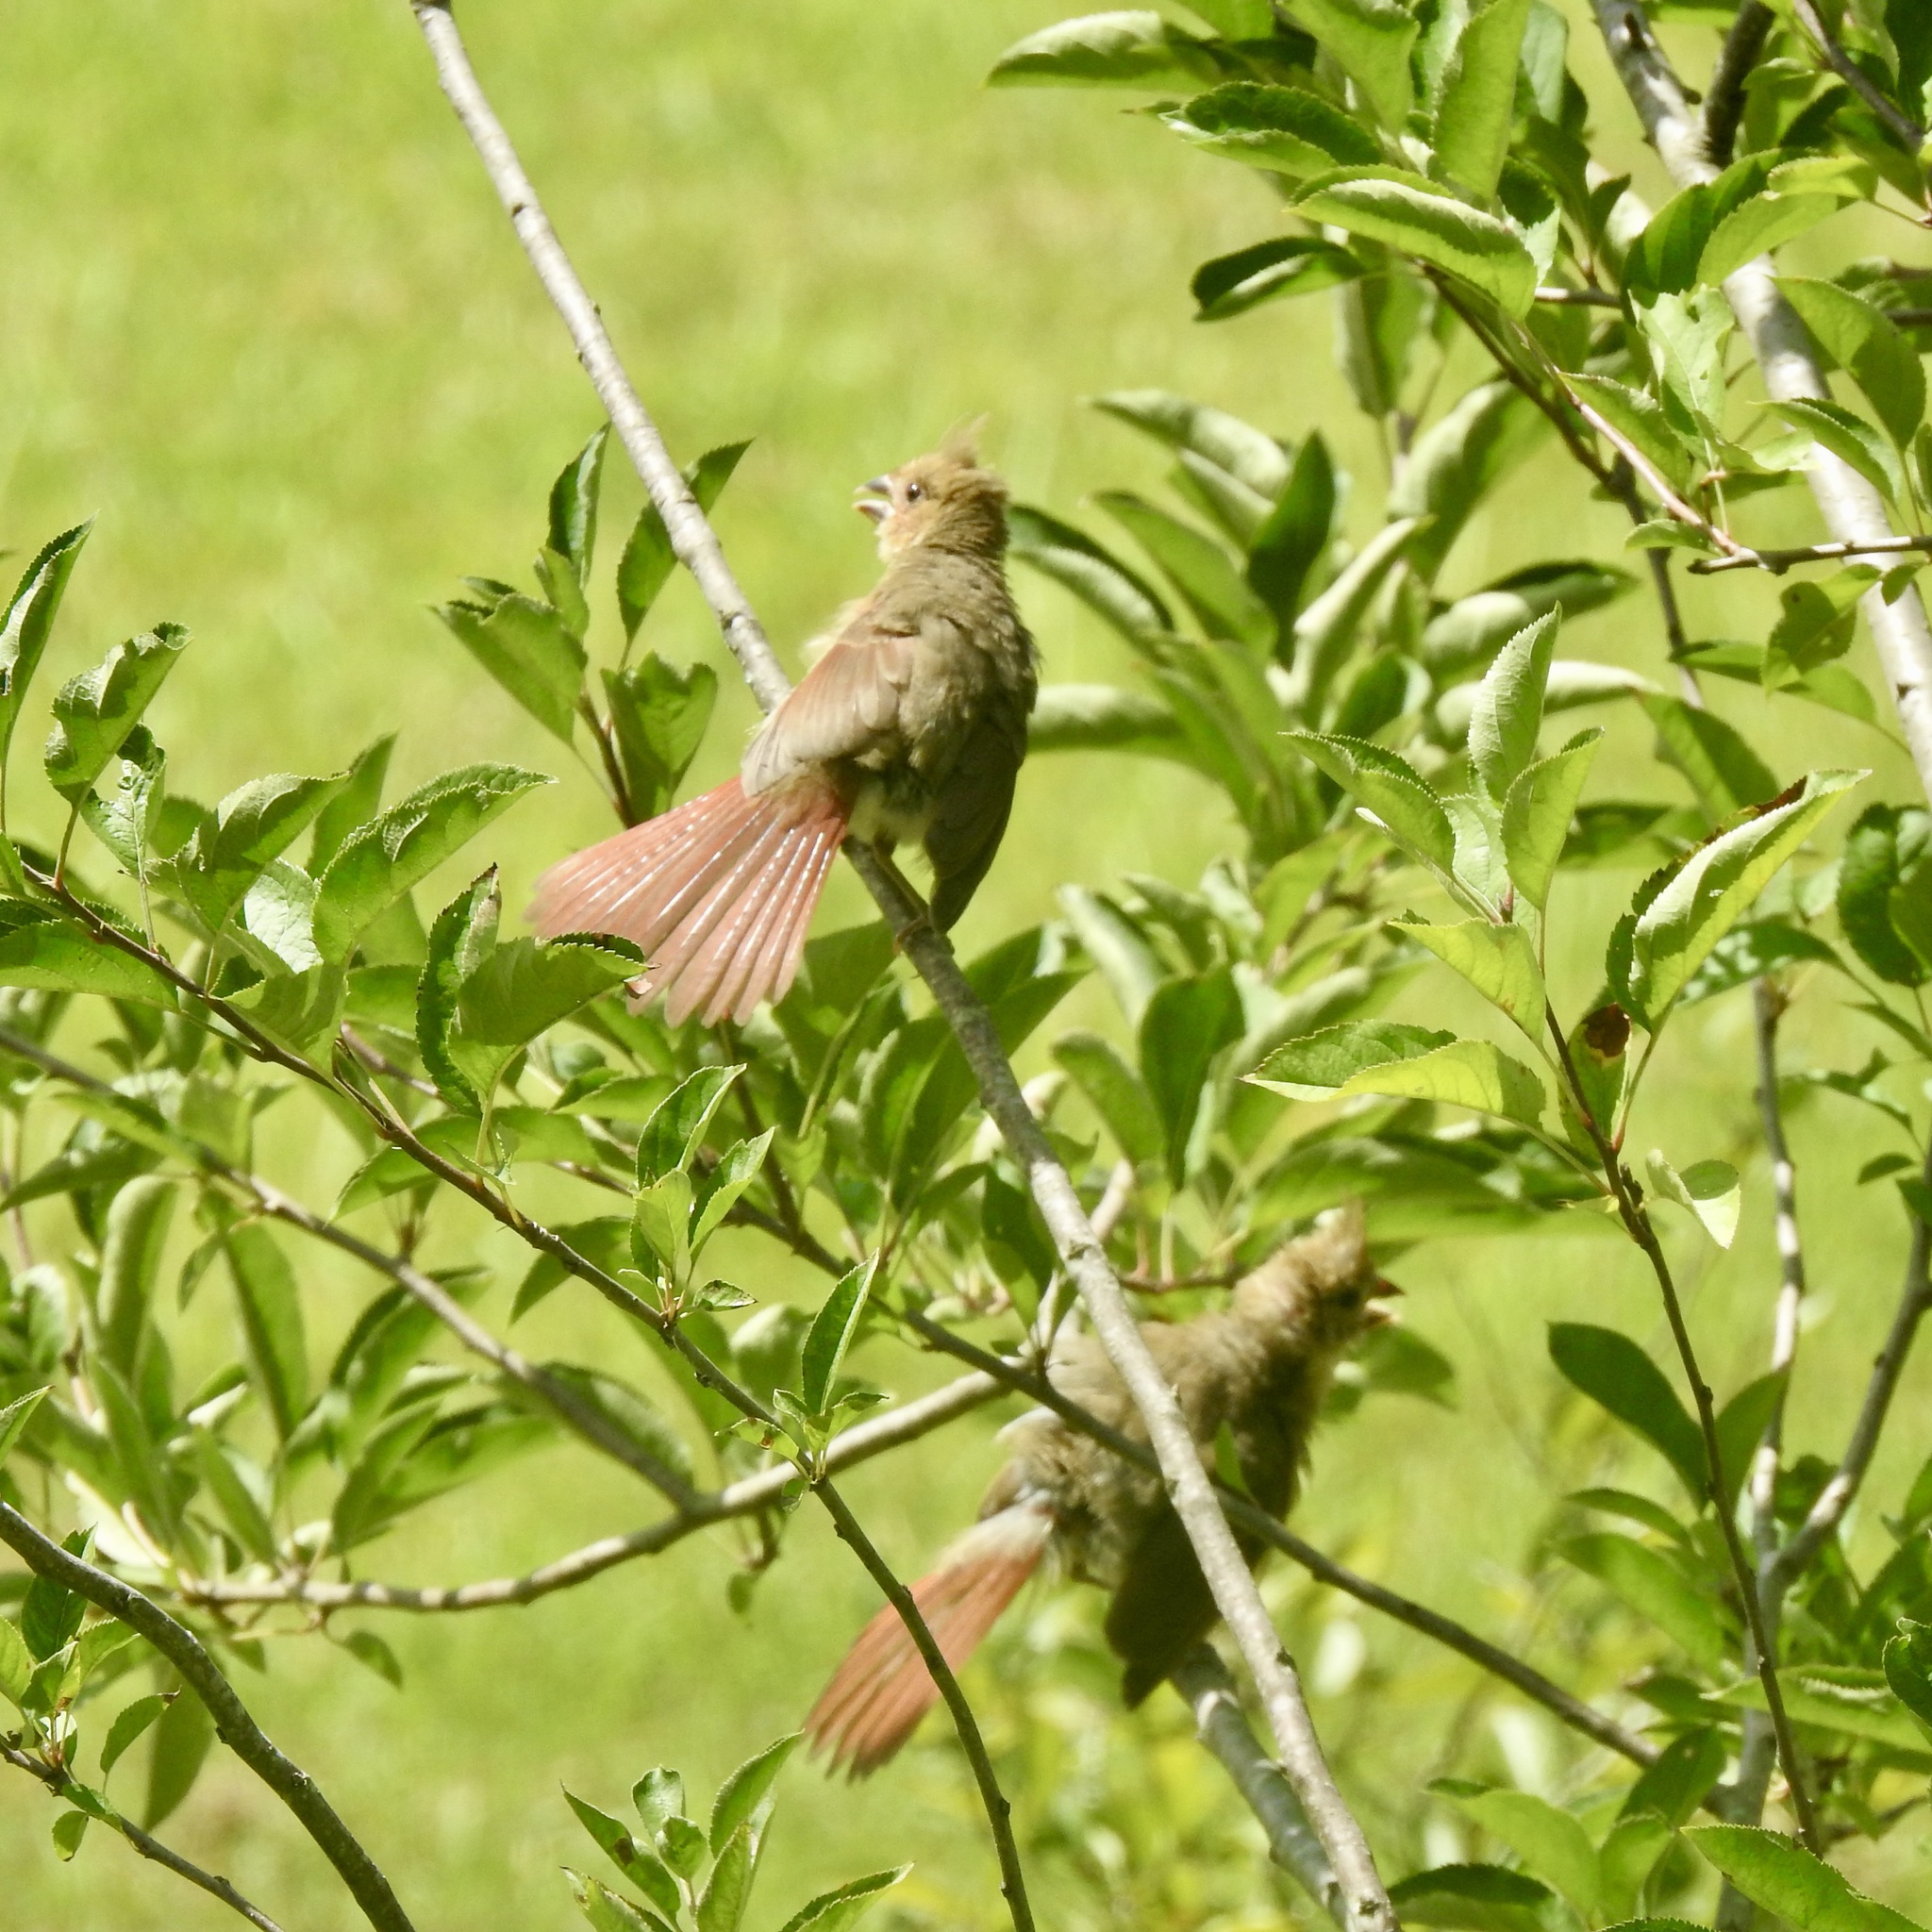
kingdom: Animalia
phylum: Chordata
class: Aves
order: Passeriformes
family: Cardinalidae
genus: Cardinalis
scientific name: Cardinalis cardinalis
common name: Northern cardinal
